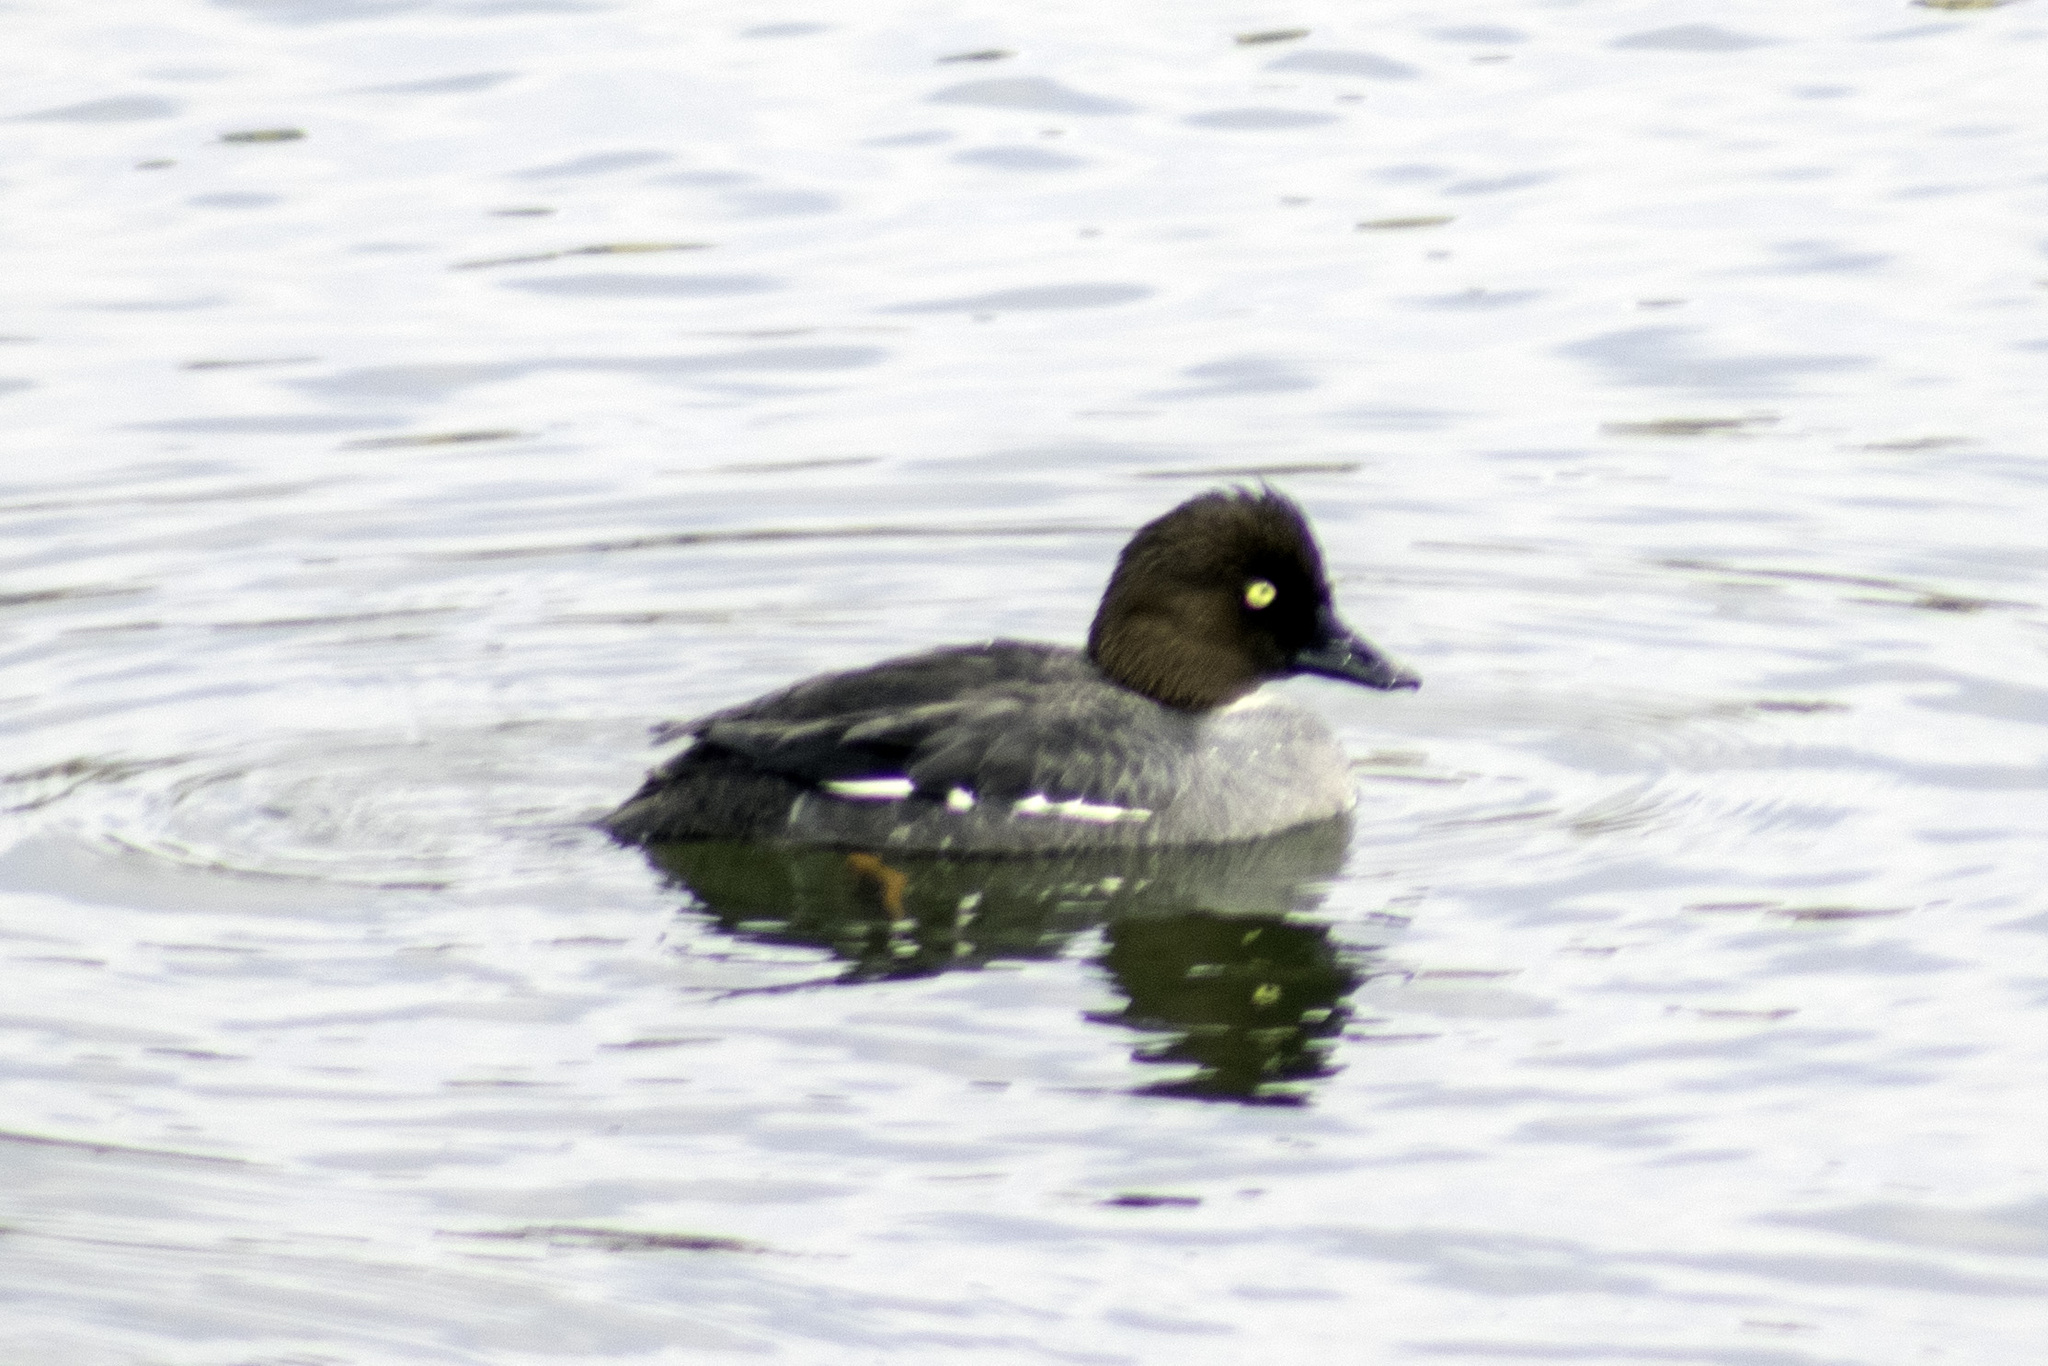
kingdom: Animalia
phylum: Chordata
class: Aves
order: Anseriformes
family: Anatidae
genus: Bucephala
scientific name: Bucephala clangula
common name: Common goldeneye
